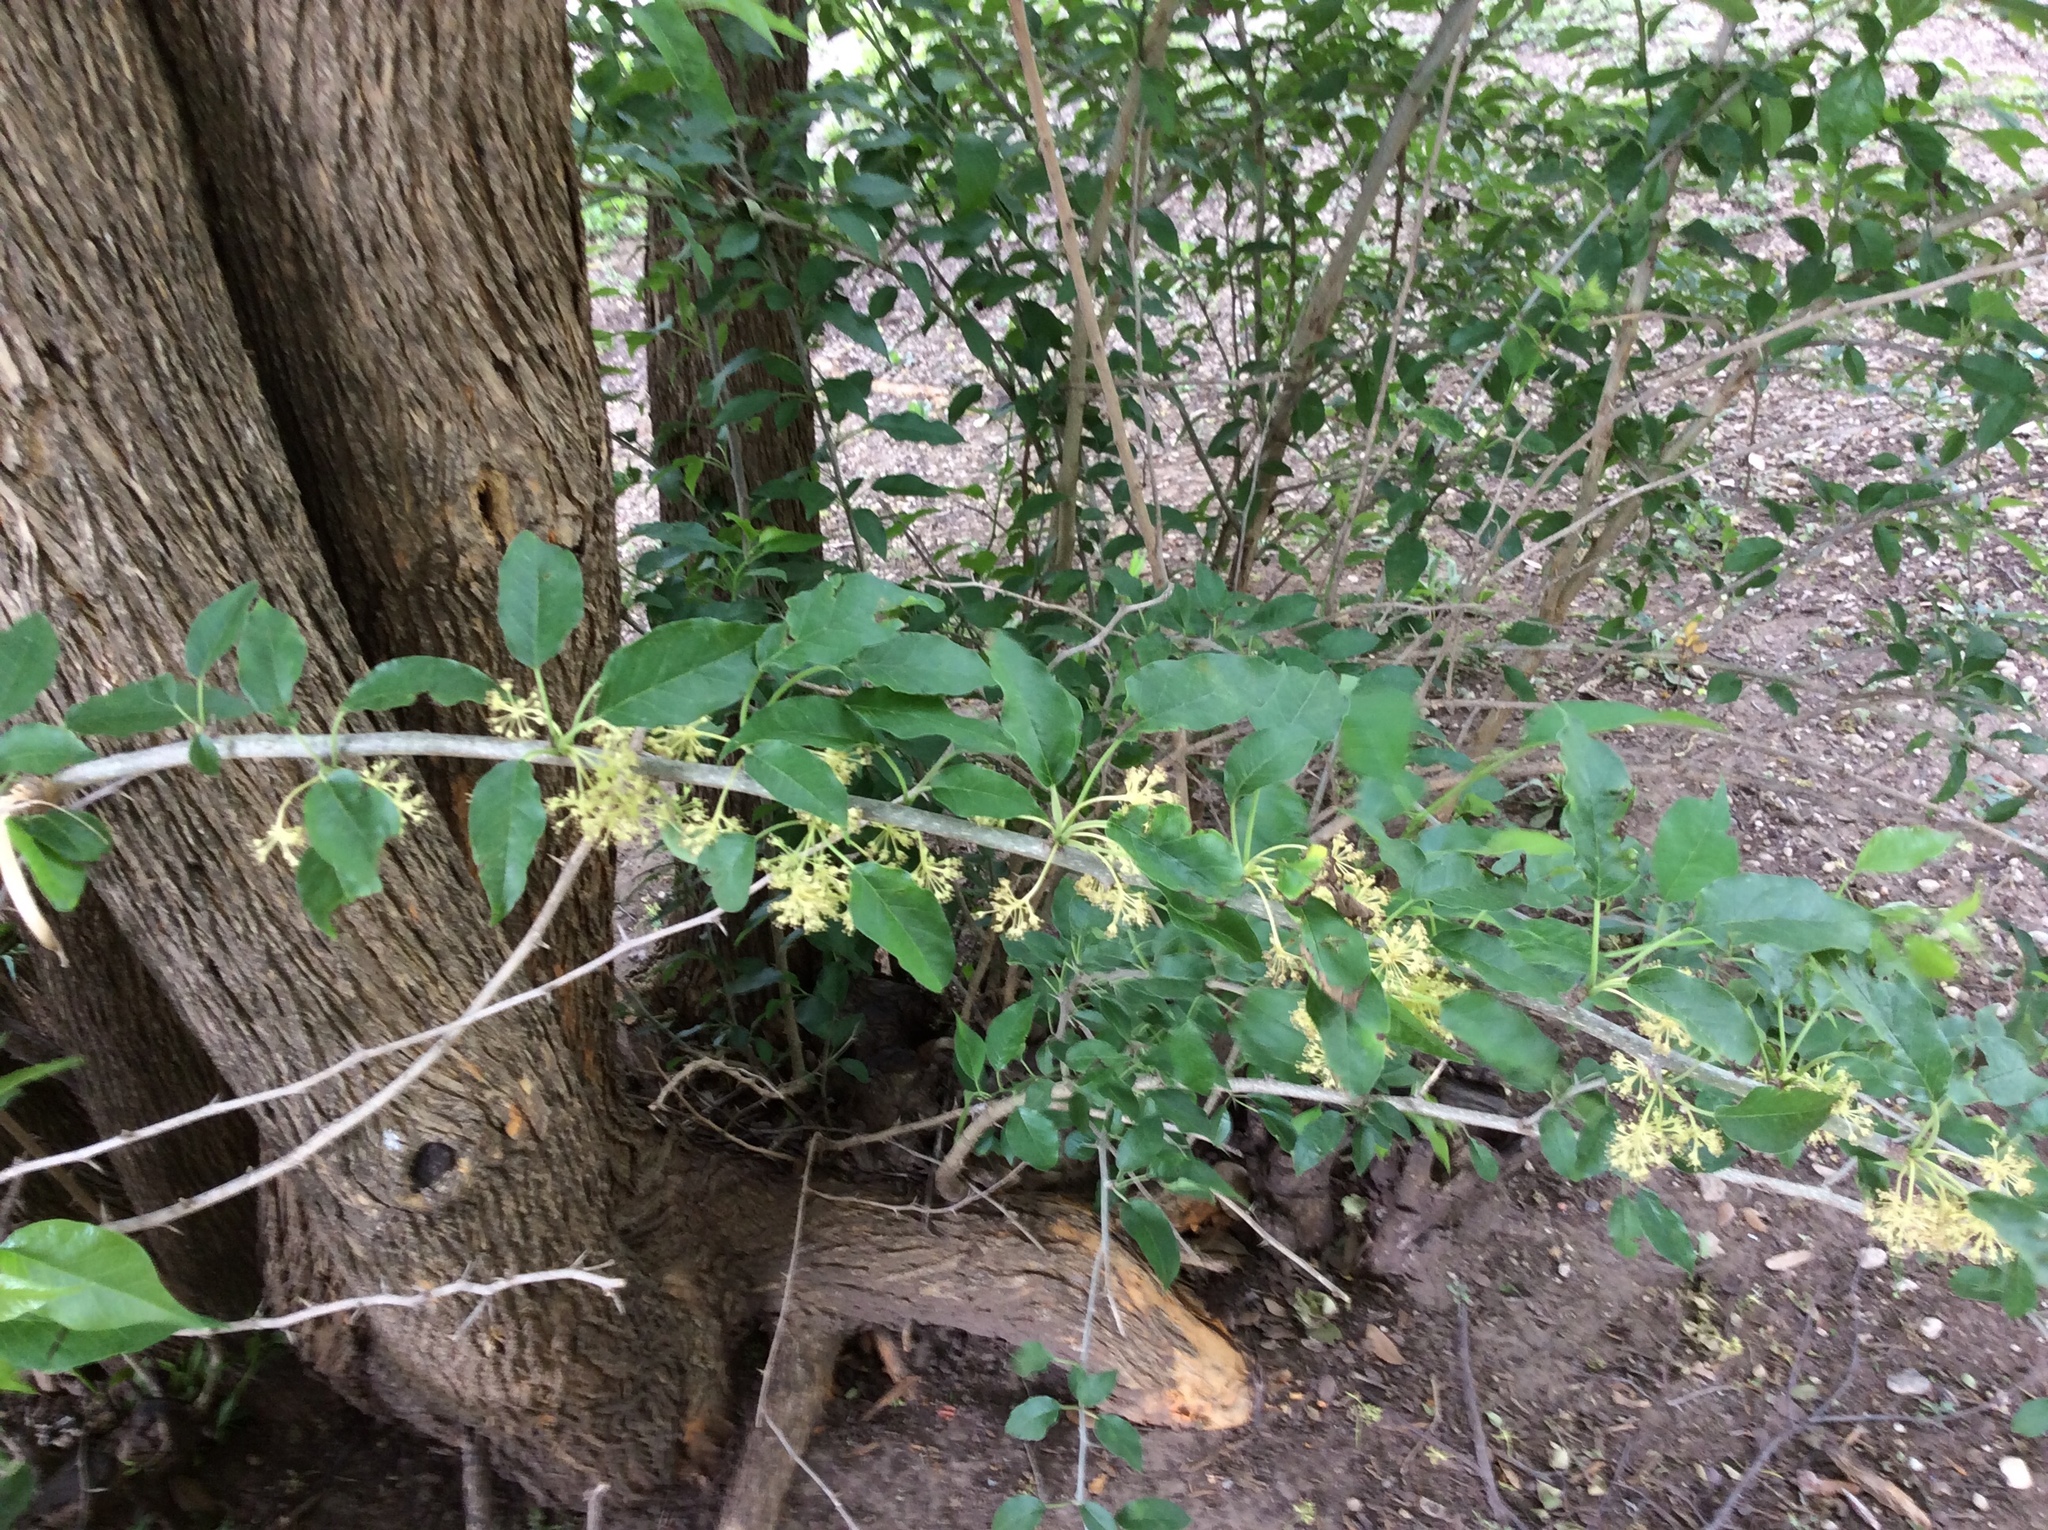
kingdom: Plantae
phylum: Tracheophyta
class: Magnoliopsida
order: Rosales
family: Moraceae
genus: Maclura
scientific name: Maclura pomifera
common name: Osage-orange
